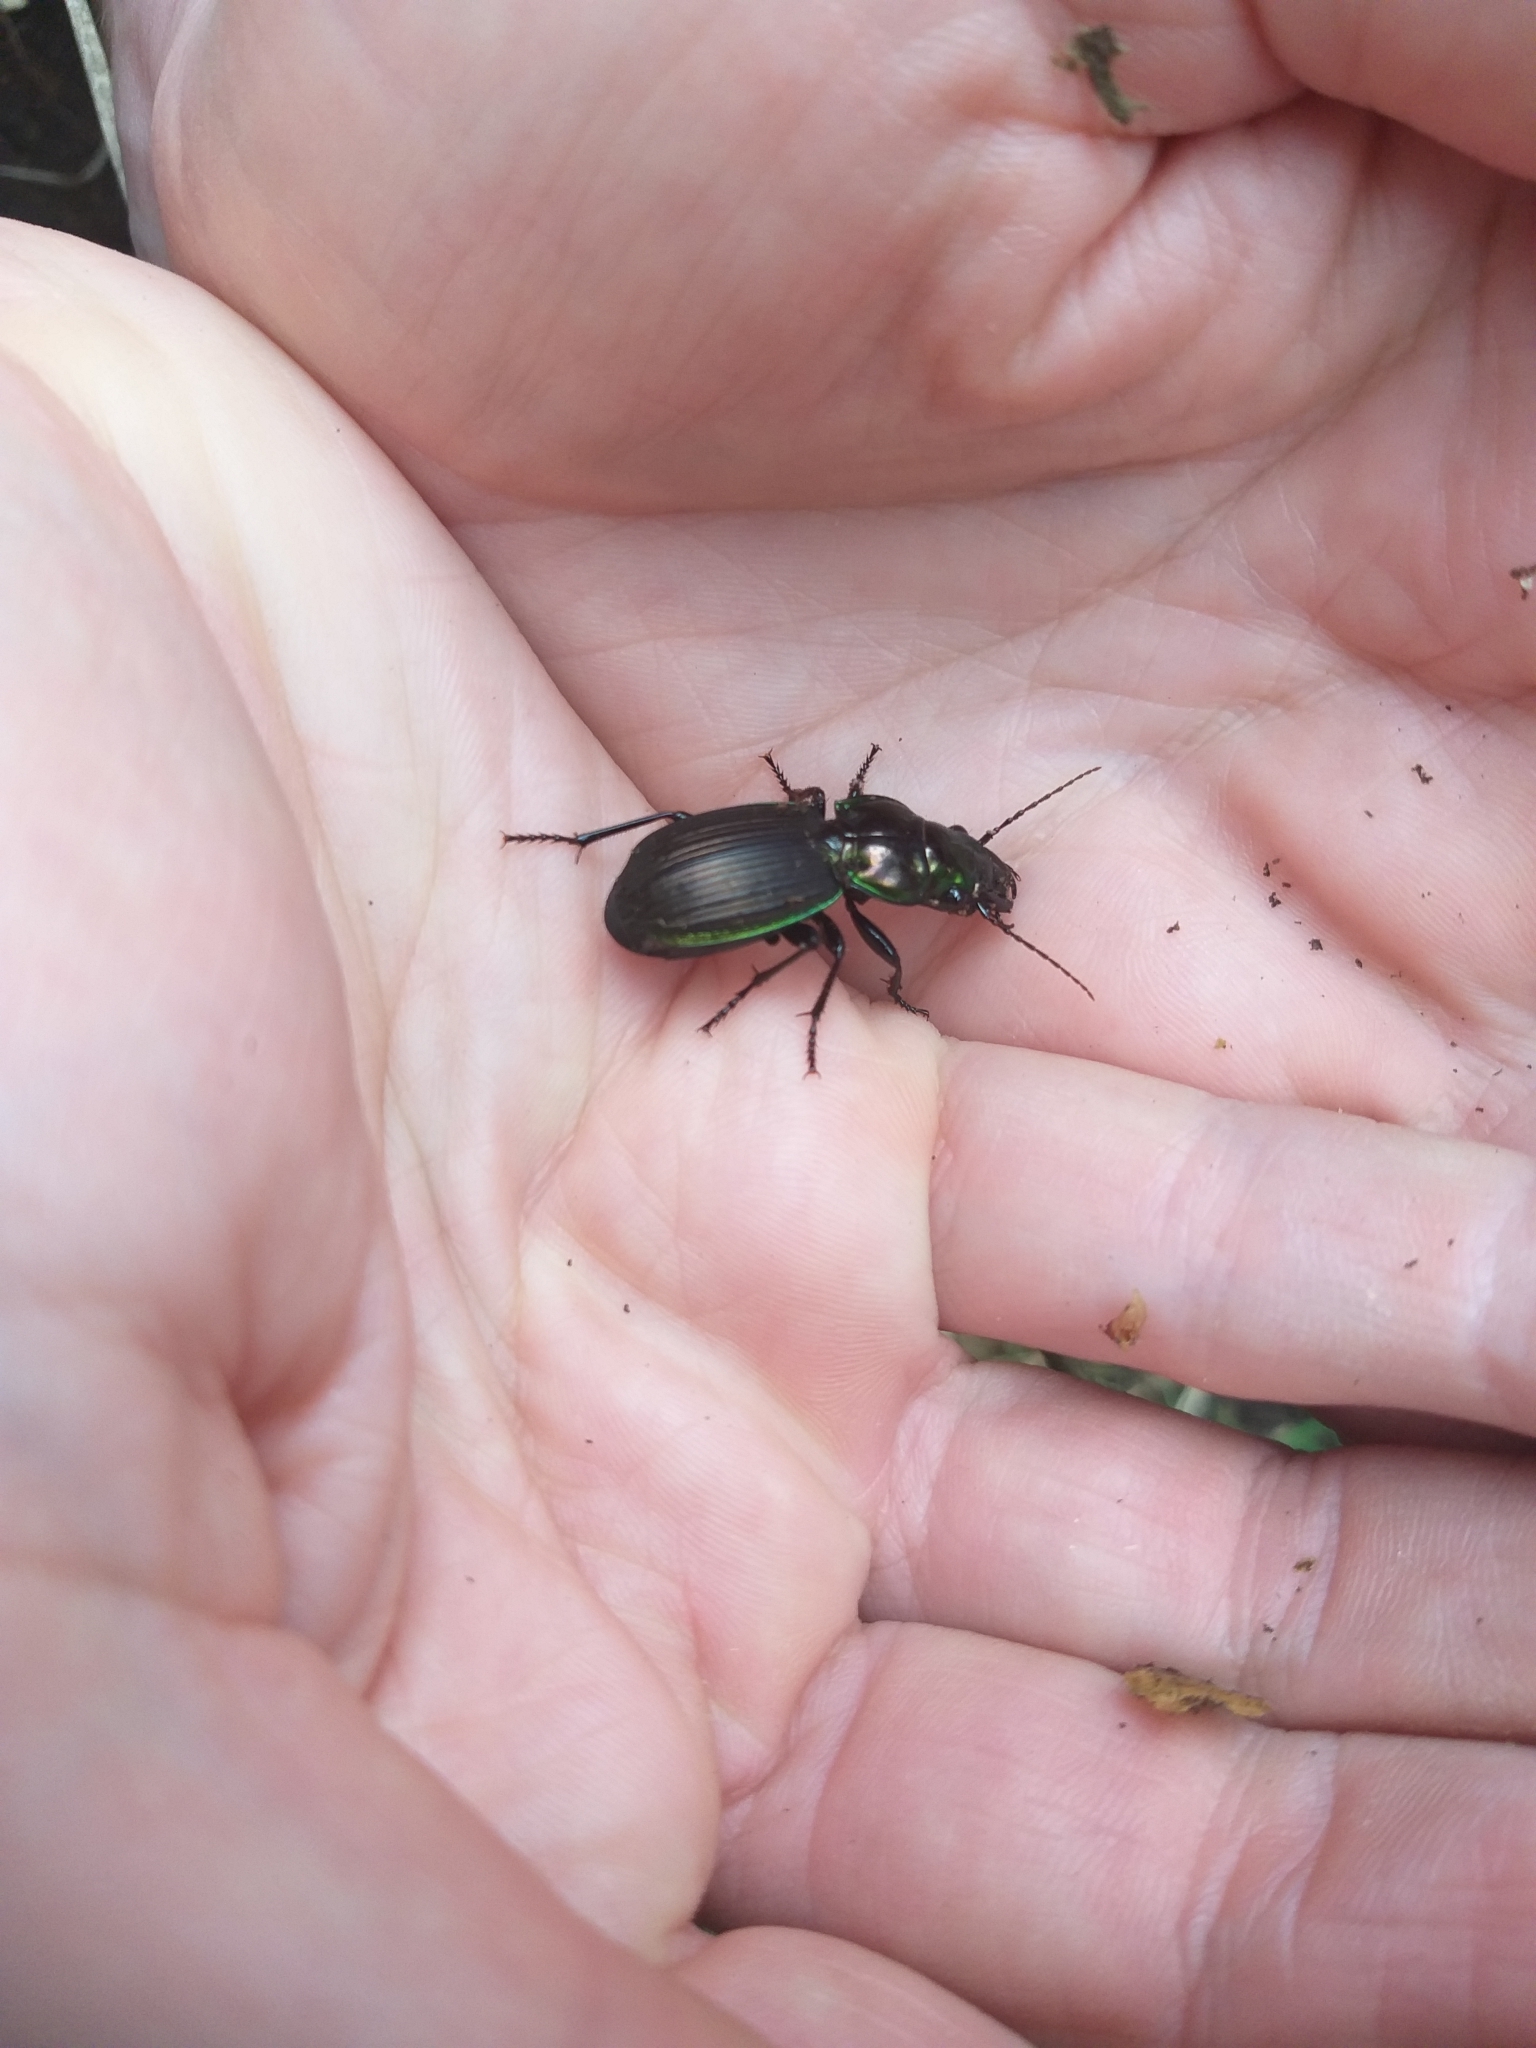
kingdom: Animalia
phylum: Arthropoda
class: Insecta
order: Coleoptera
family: Carabidae
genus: Megadromus
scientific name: Megadromus antarcticus
